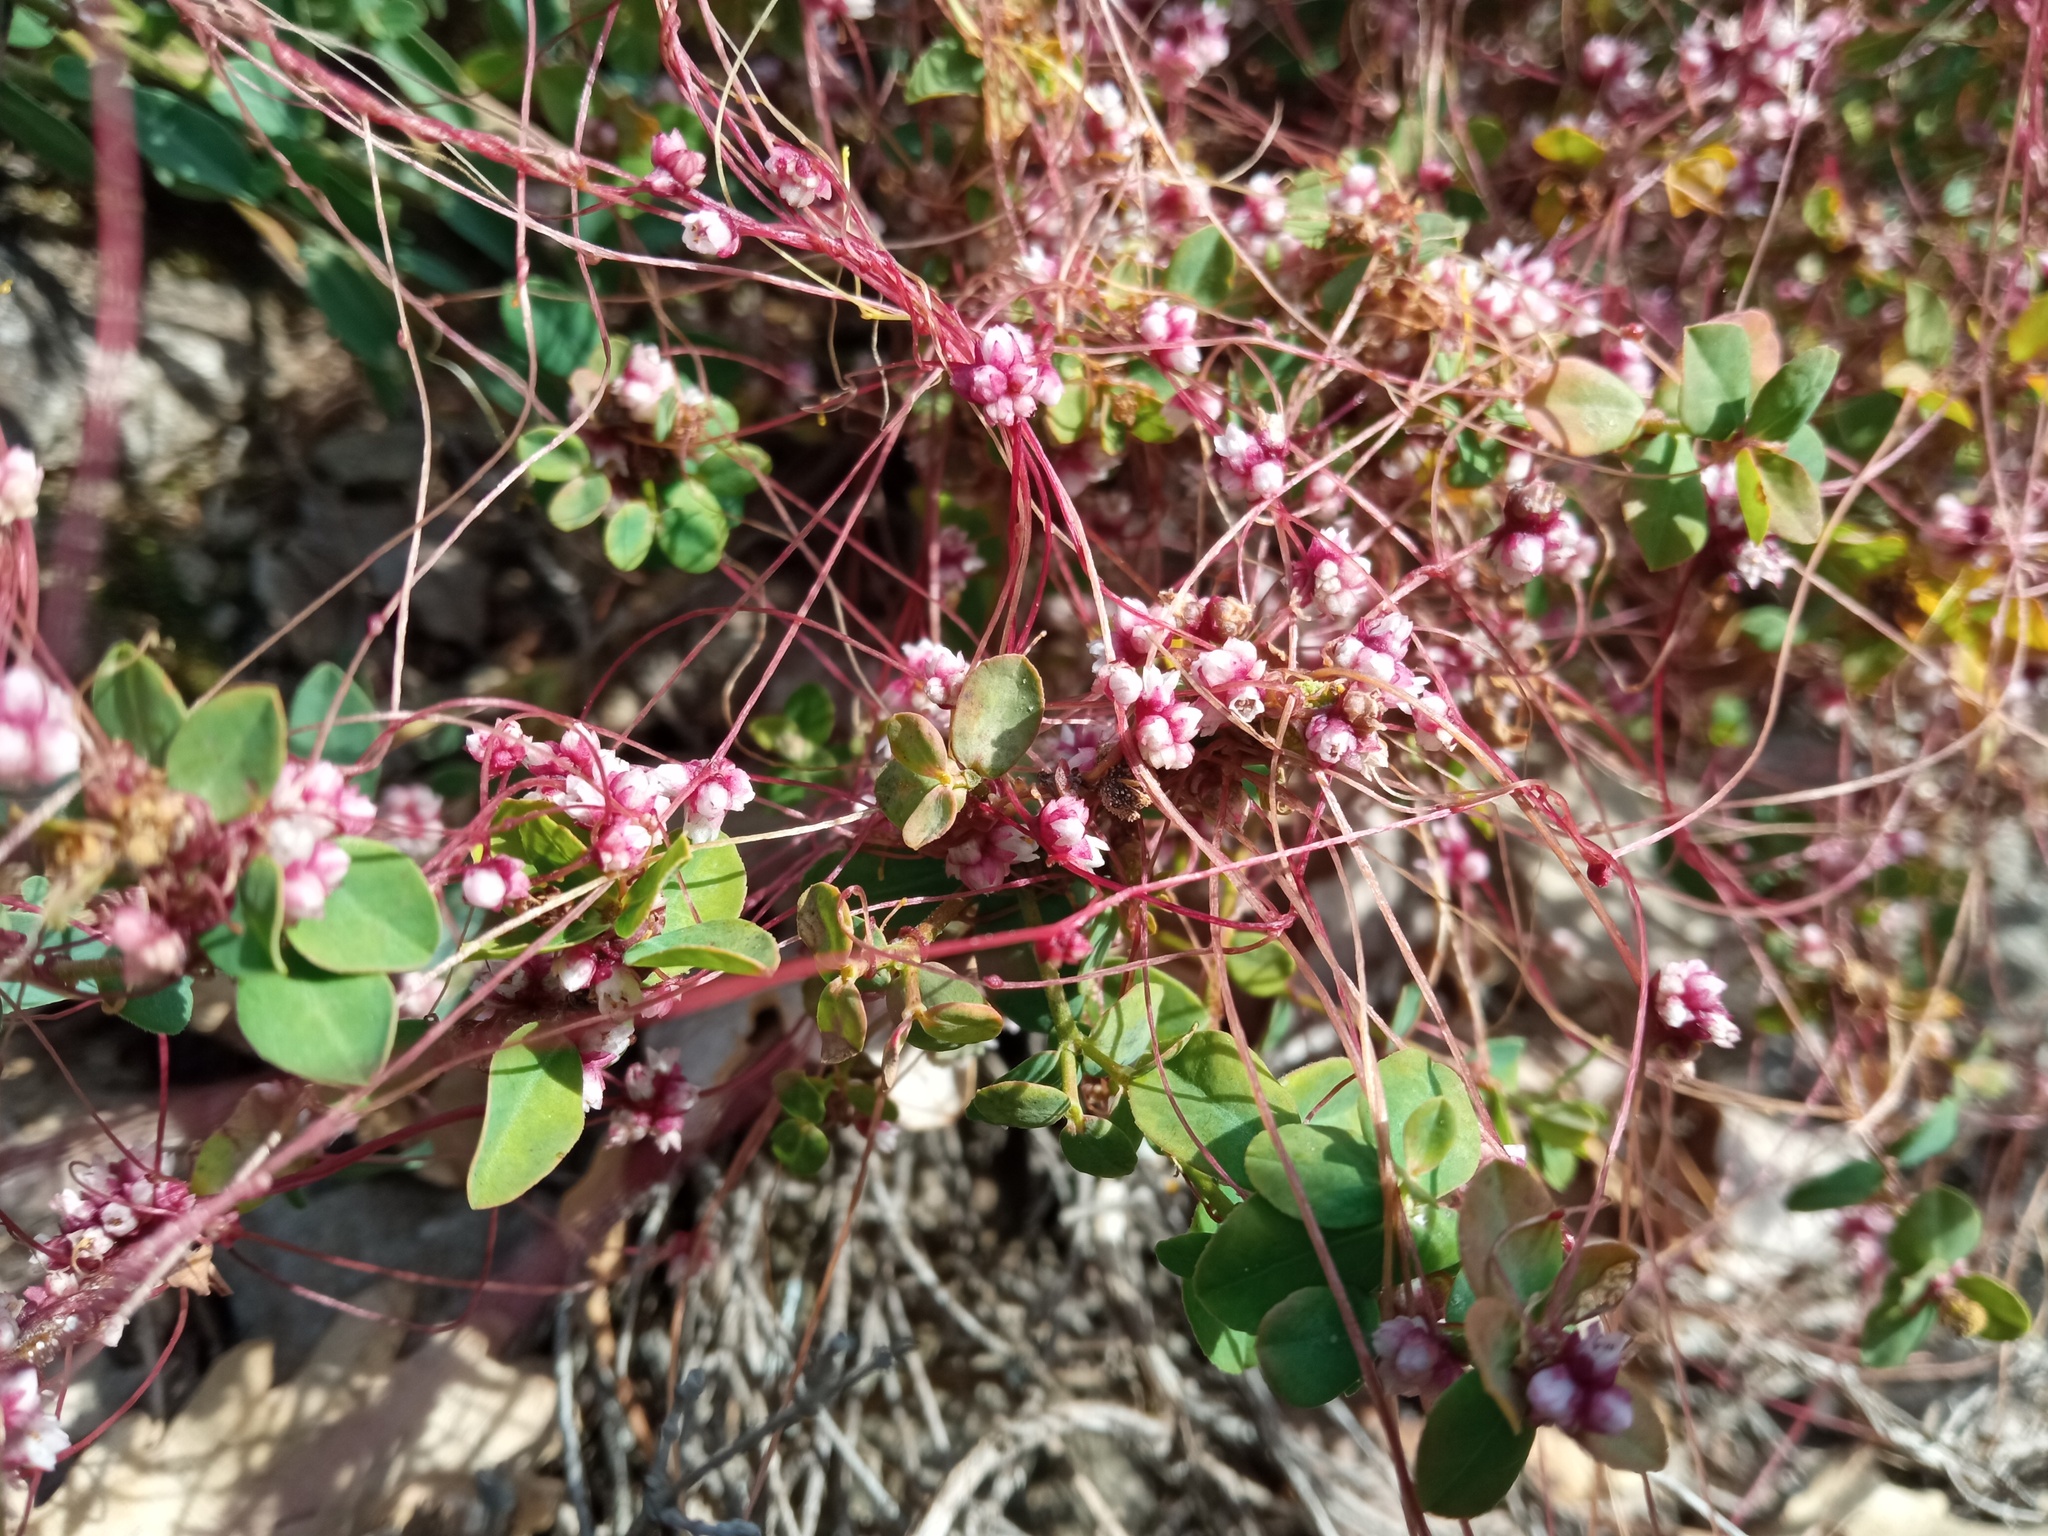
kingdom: Plantae
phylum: Tracheophyta
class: Magnoliopsida
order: Solanales
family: Convolvulaceae
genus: Cuscuta
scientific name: Cuscuta epithymum
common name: Clover dodder
